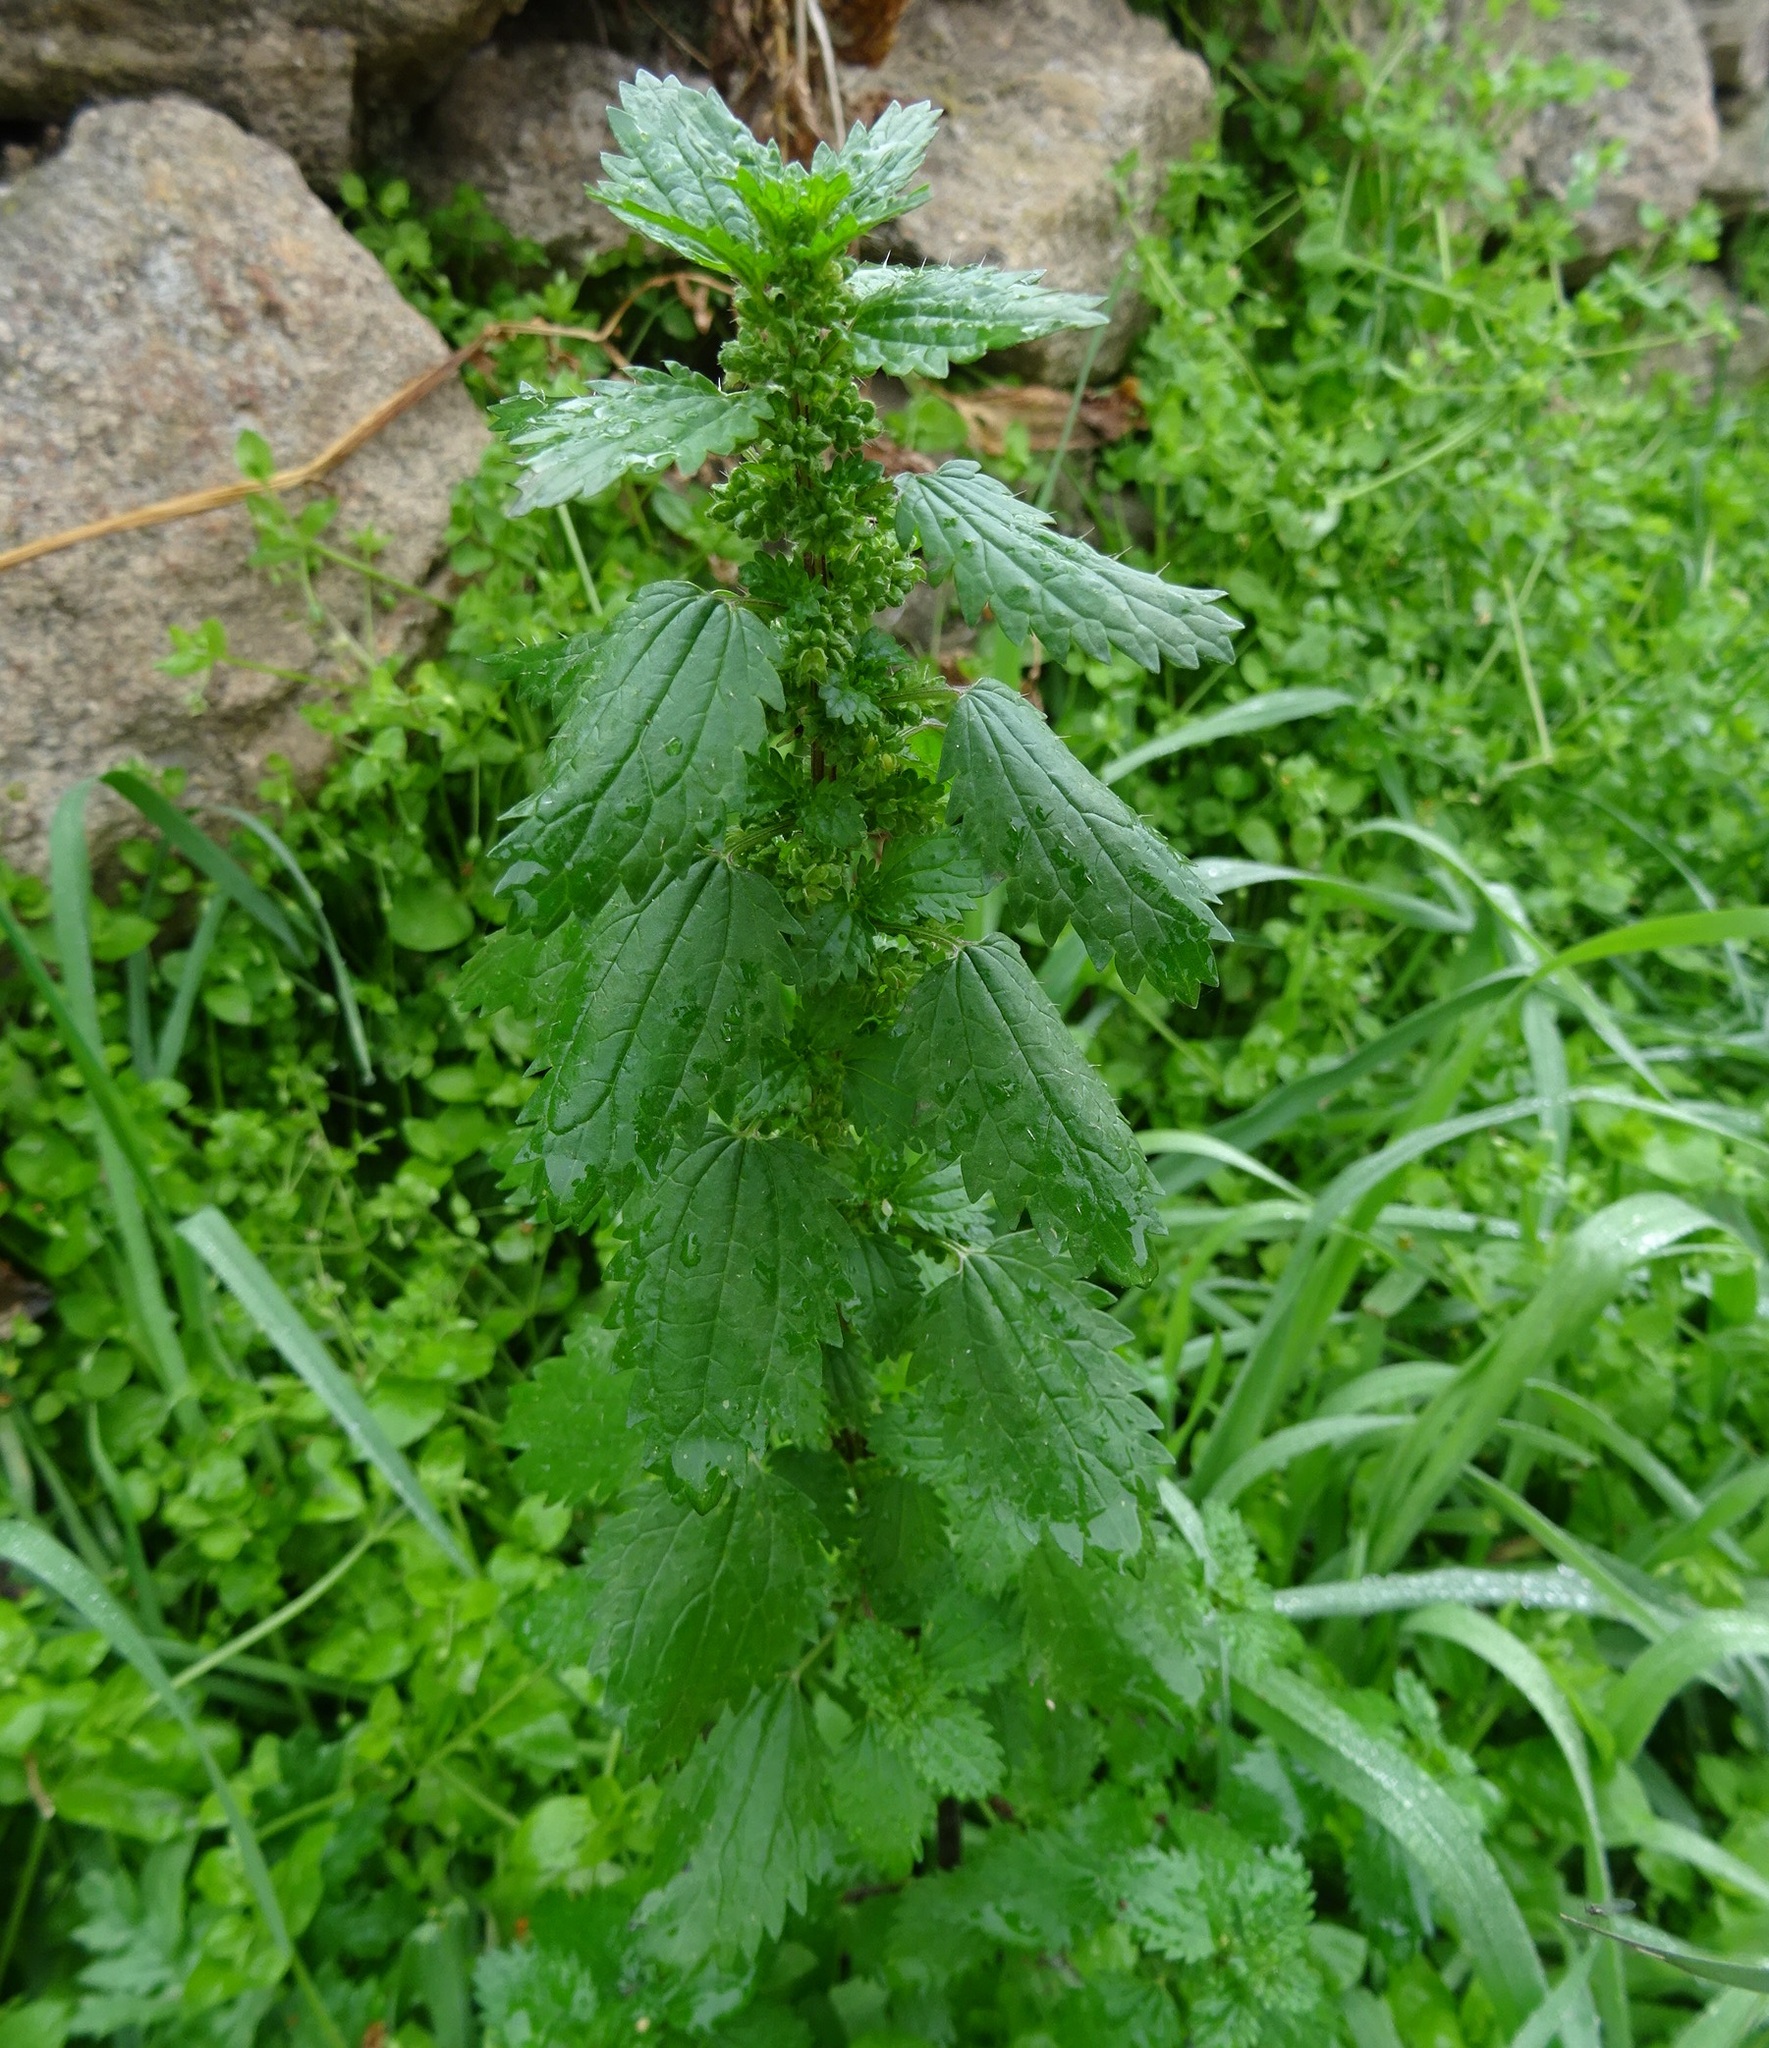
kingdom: Plantae
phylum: Tracheophyta
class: Magnoliopsida
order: Rosales
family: Urticaceae
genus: Urtica
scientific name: Urtica urens
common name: Dwarf nettle
